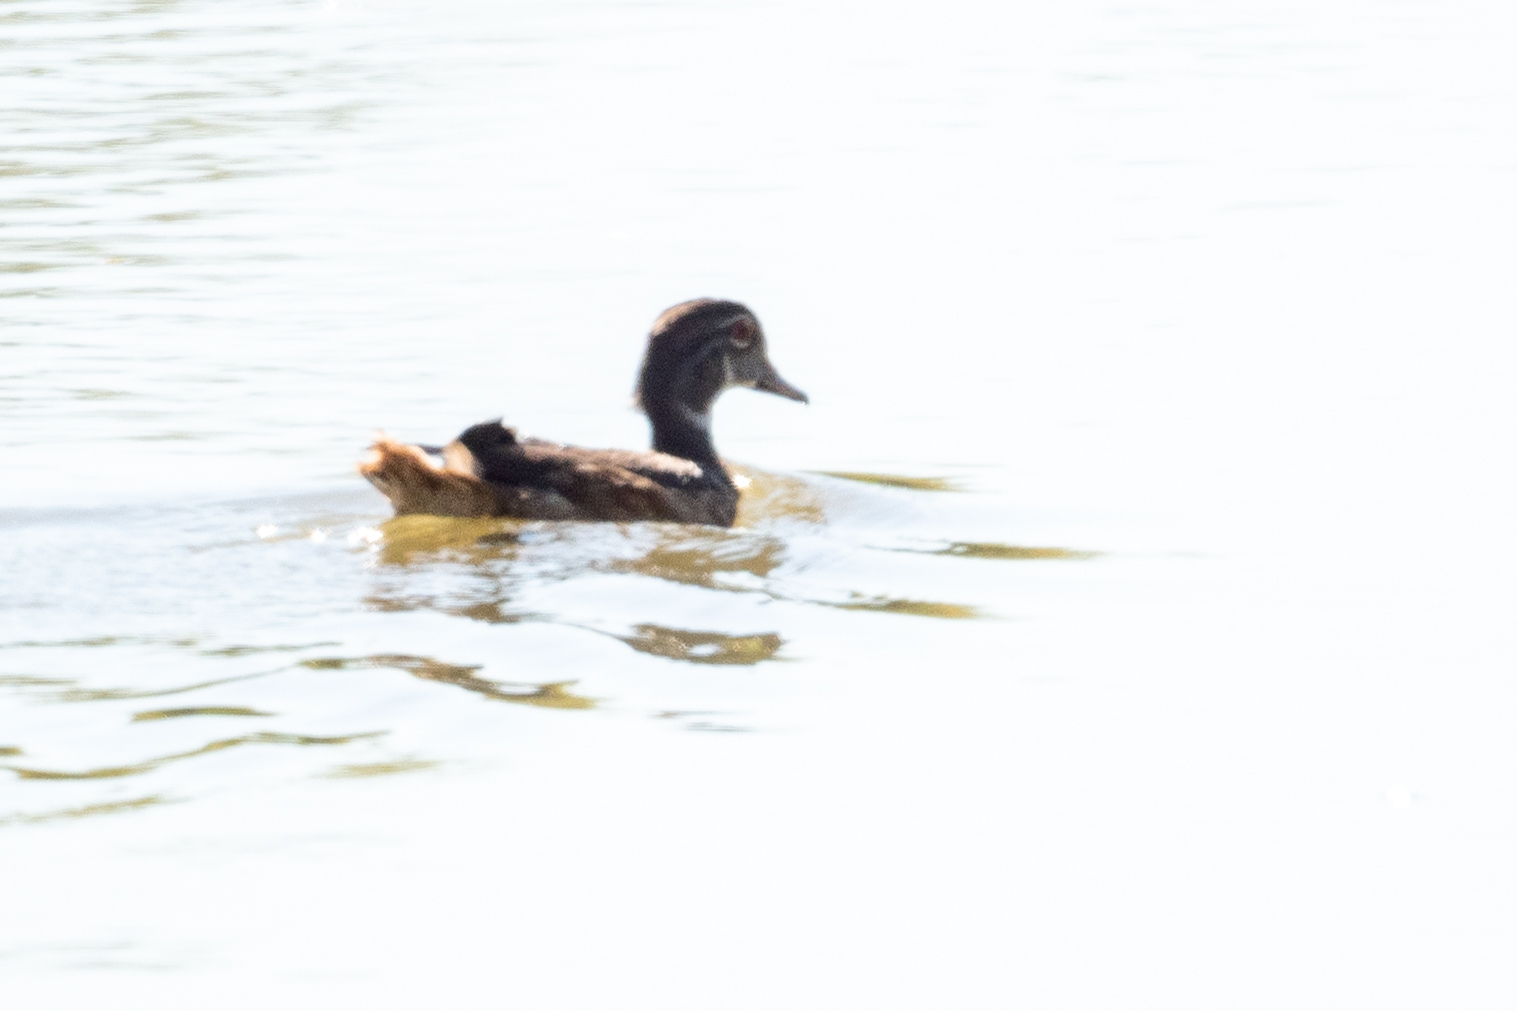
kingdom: Animalia
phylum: Chordata
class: Aves
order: Anseriformes
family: Anatidae
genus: Aix
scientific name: Aix sponsa
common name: Wood duck
